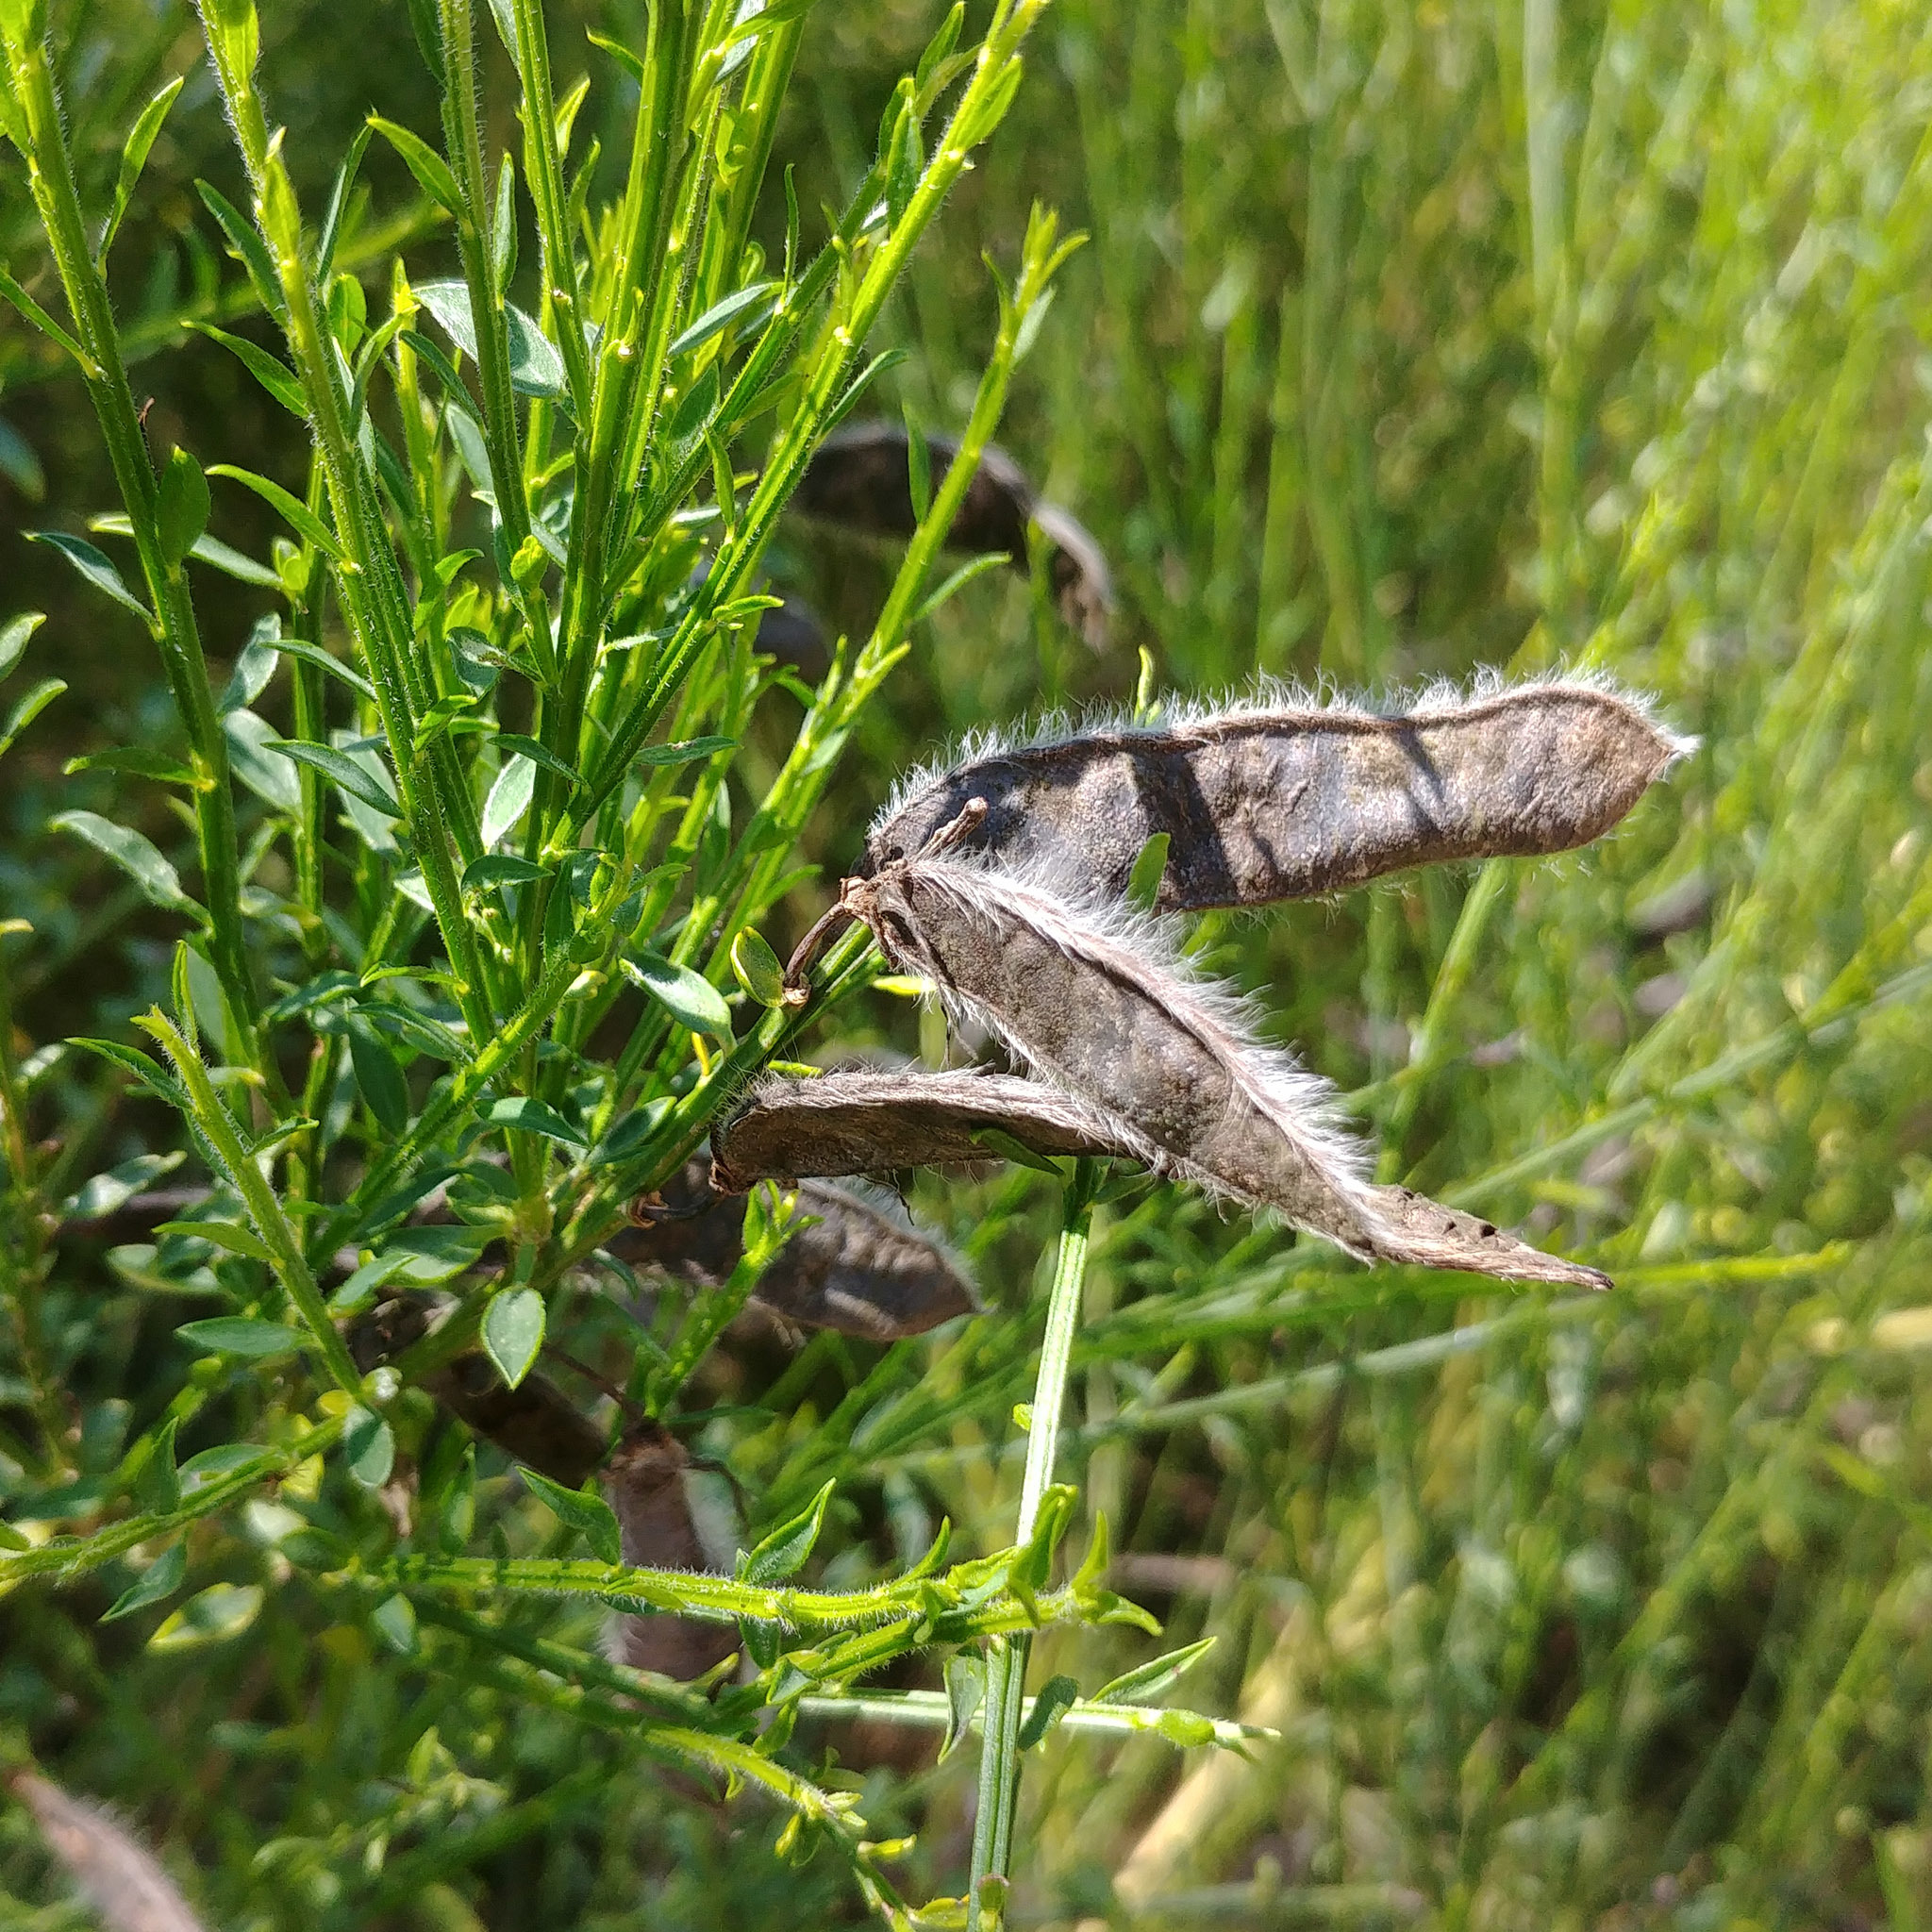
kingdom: Plantae
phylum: Tracheophyta
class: Magnoliopsida
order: Fabales
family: Fabaceae
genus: Cytisus
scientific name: Cytisus scoparius
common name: Scotch broom
